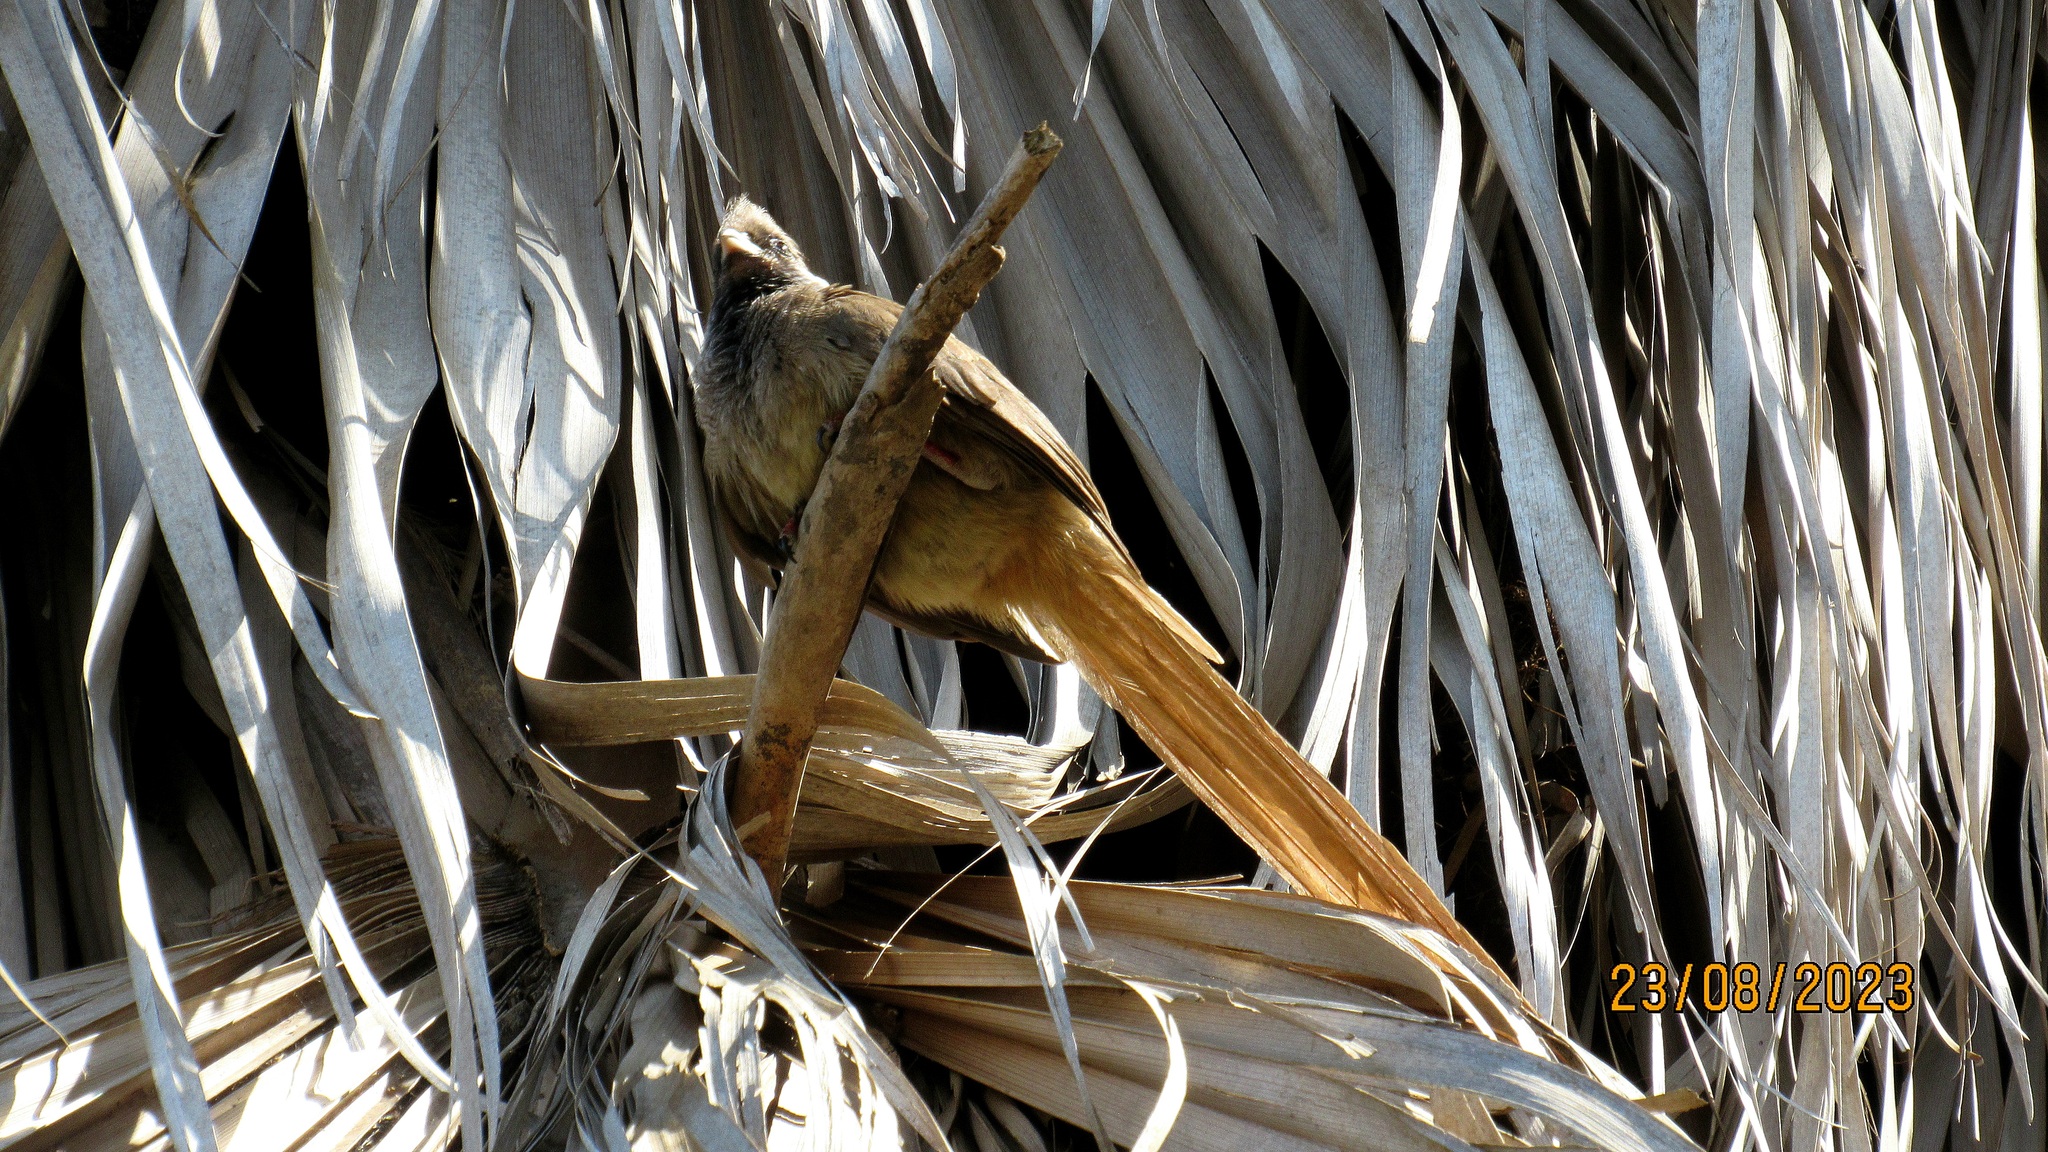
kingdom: Animalia
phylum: Chordata
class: Aves
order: Coliiformes
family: Coliidae
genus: Colius
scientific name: Colius striatus
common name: Speckled mousebird
